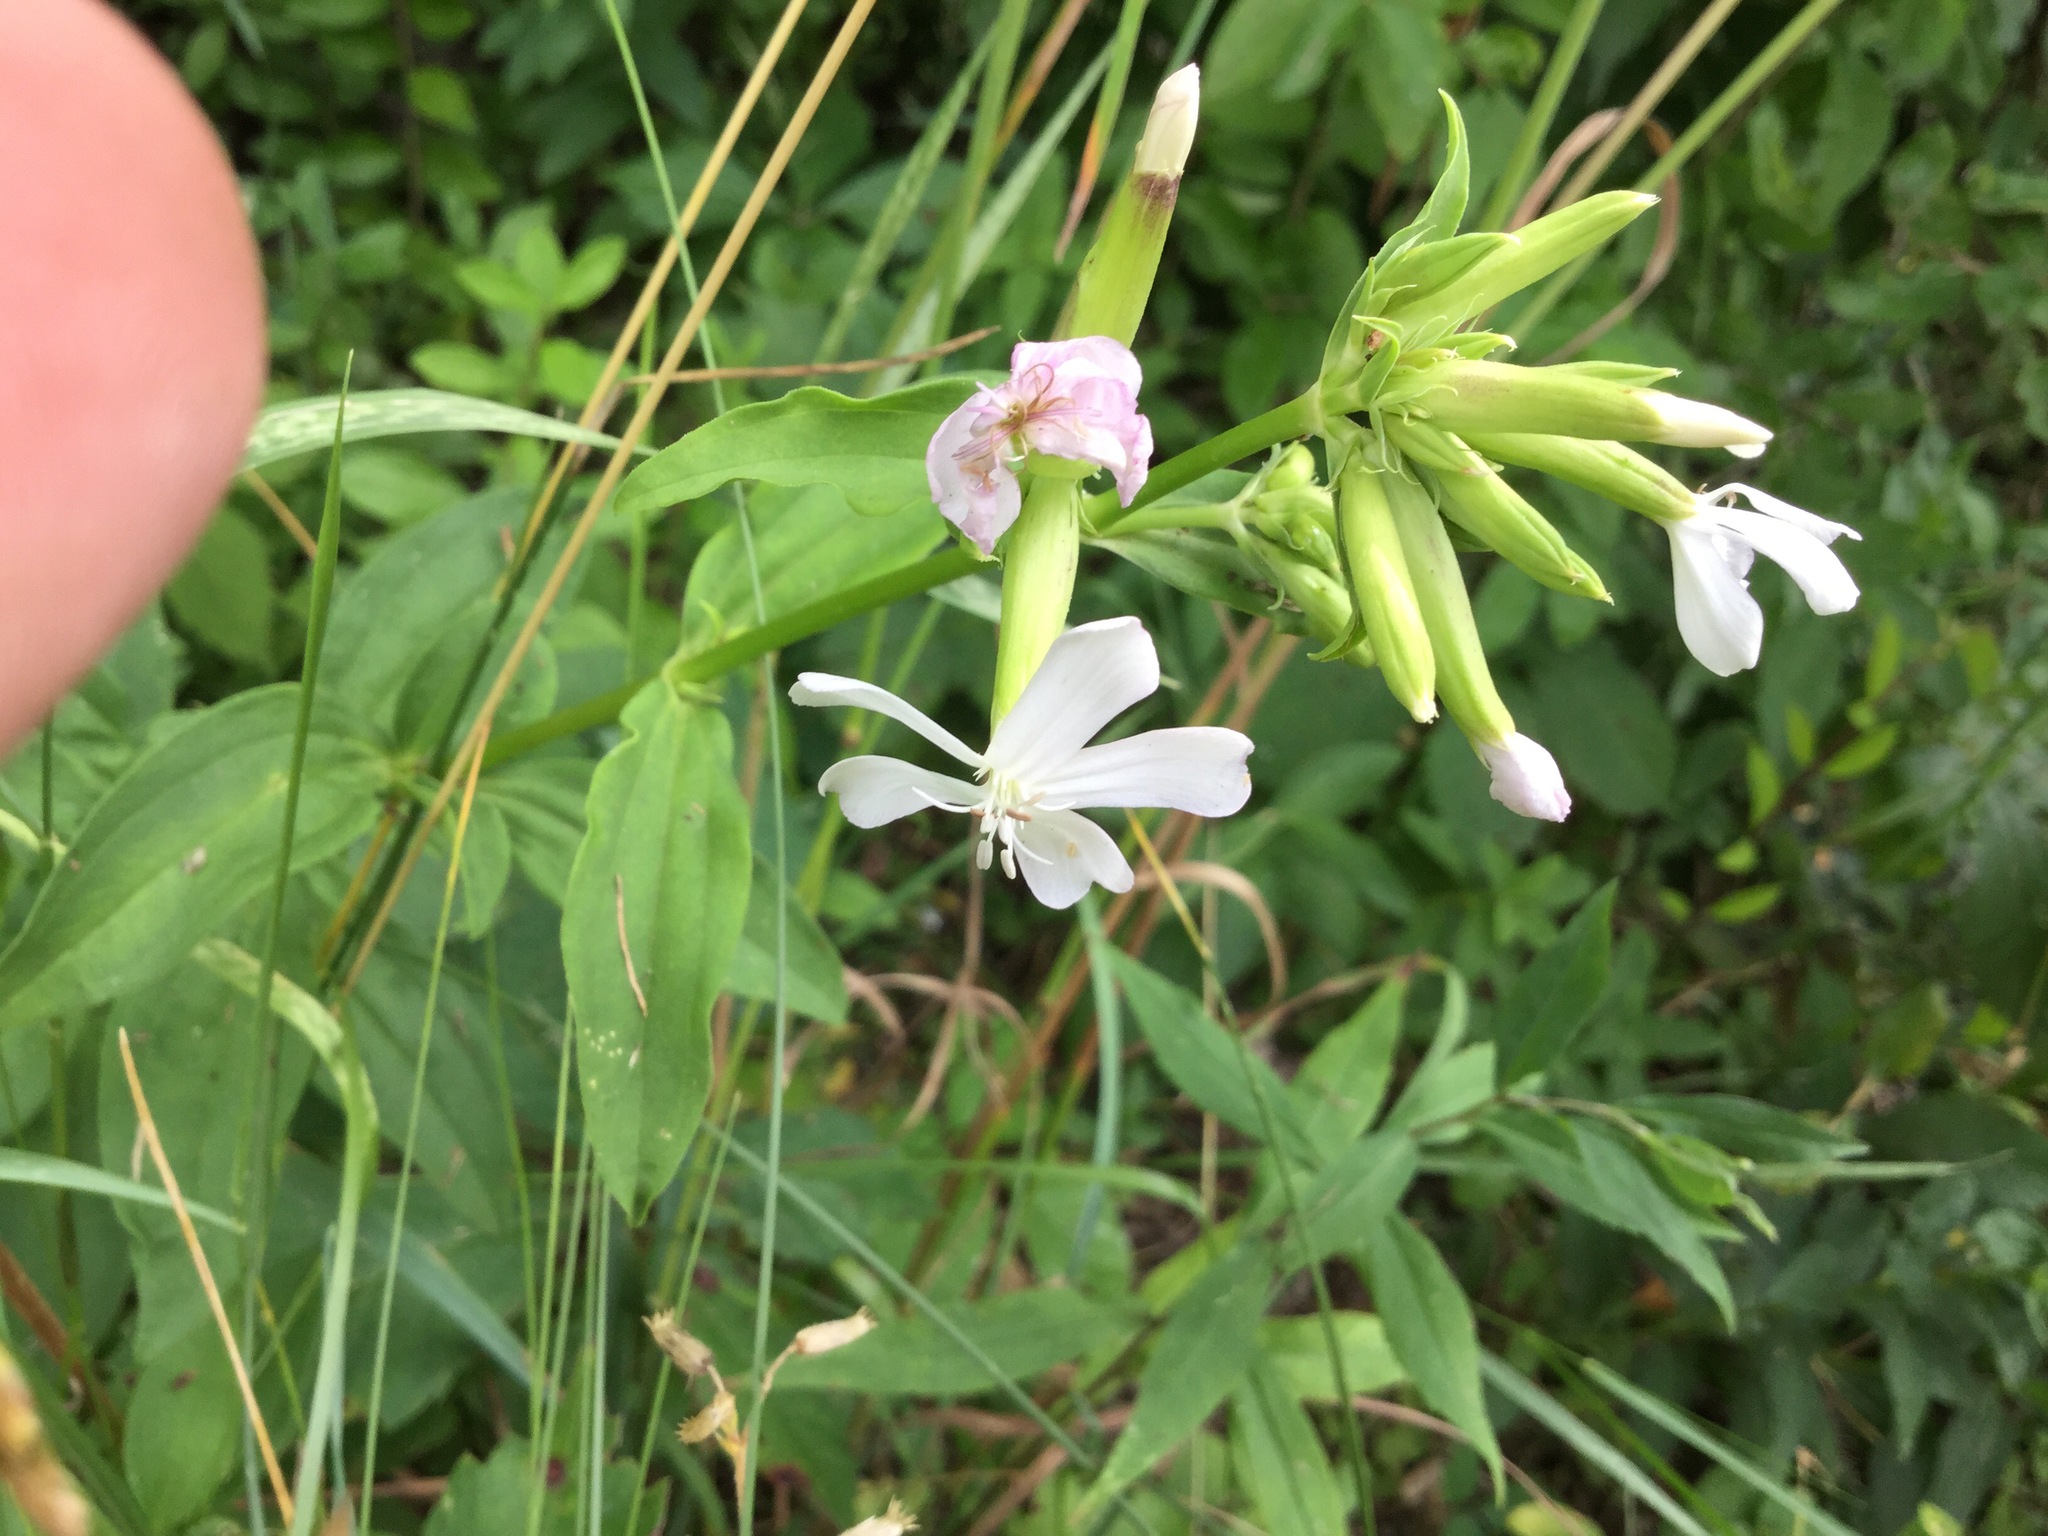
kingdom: Plantae
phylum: Tracheophyta
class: Magnoliopsida
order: Caryophyllales
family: Caryophyllaceae
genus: Saponaria
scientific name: Saponaria officinalis
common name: Soapwort
